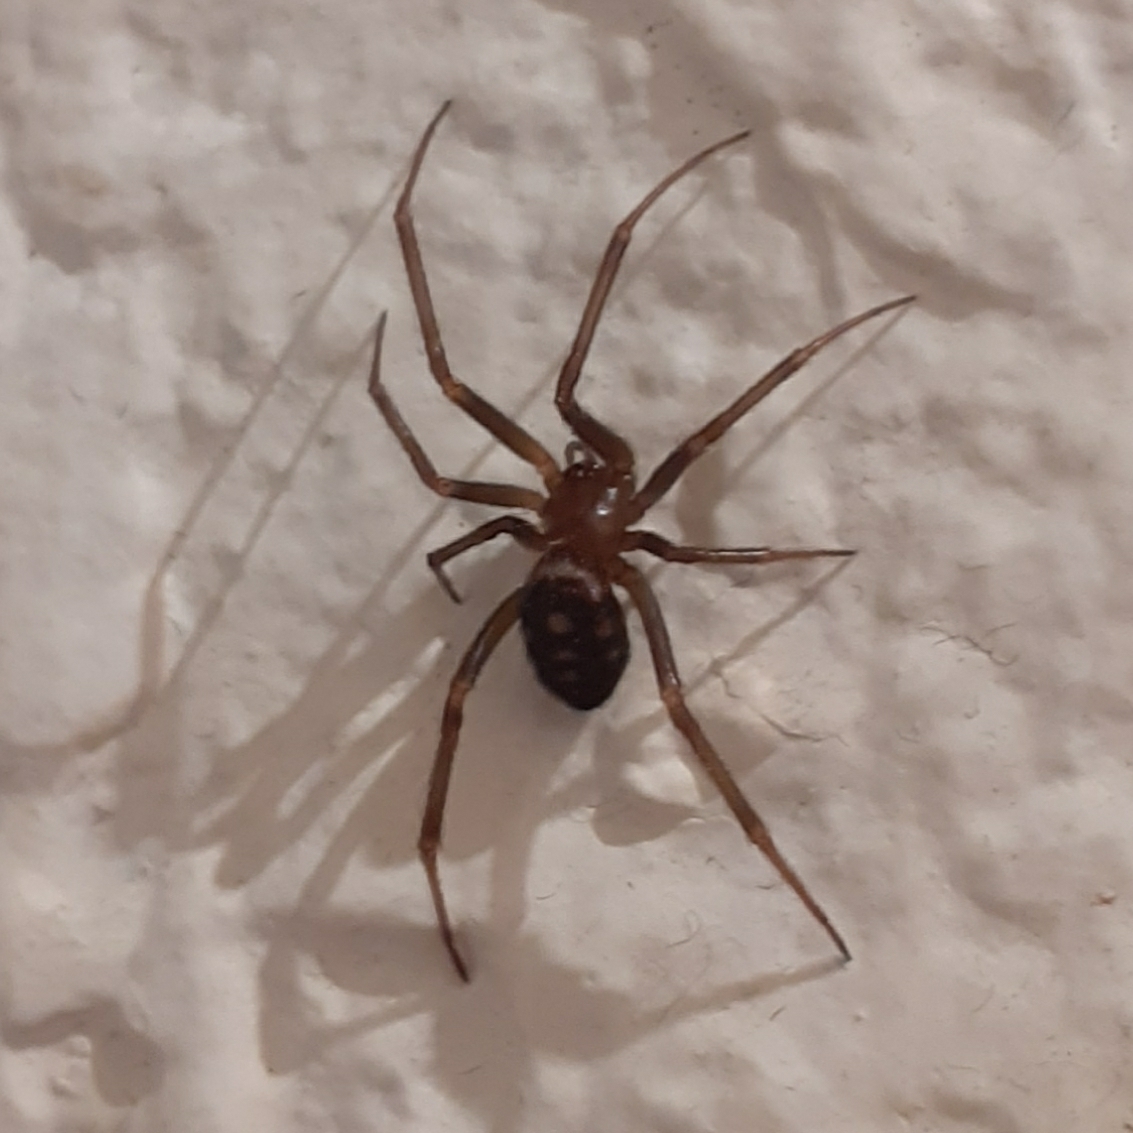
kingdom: Animalia
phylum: Arthropoda
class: Arachnida
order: Araneae
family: Theridiidae
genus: Steatoda
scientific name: Steatoda grossa
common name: False black widow
